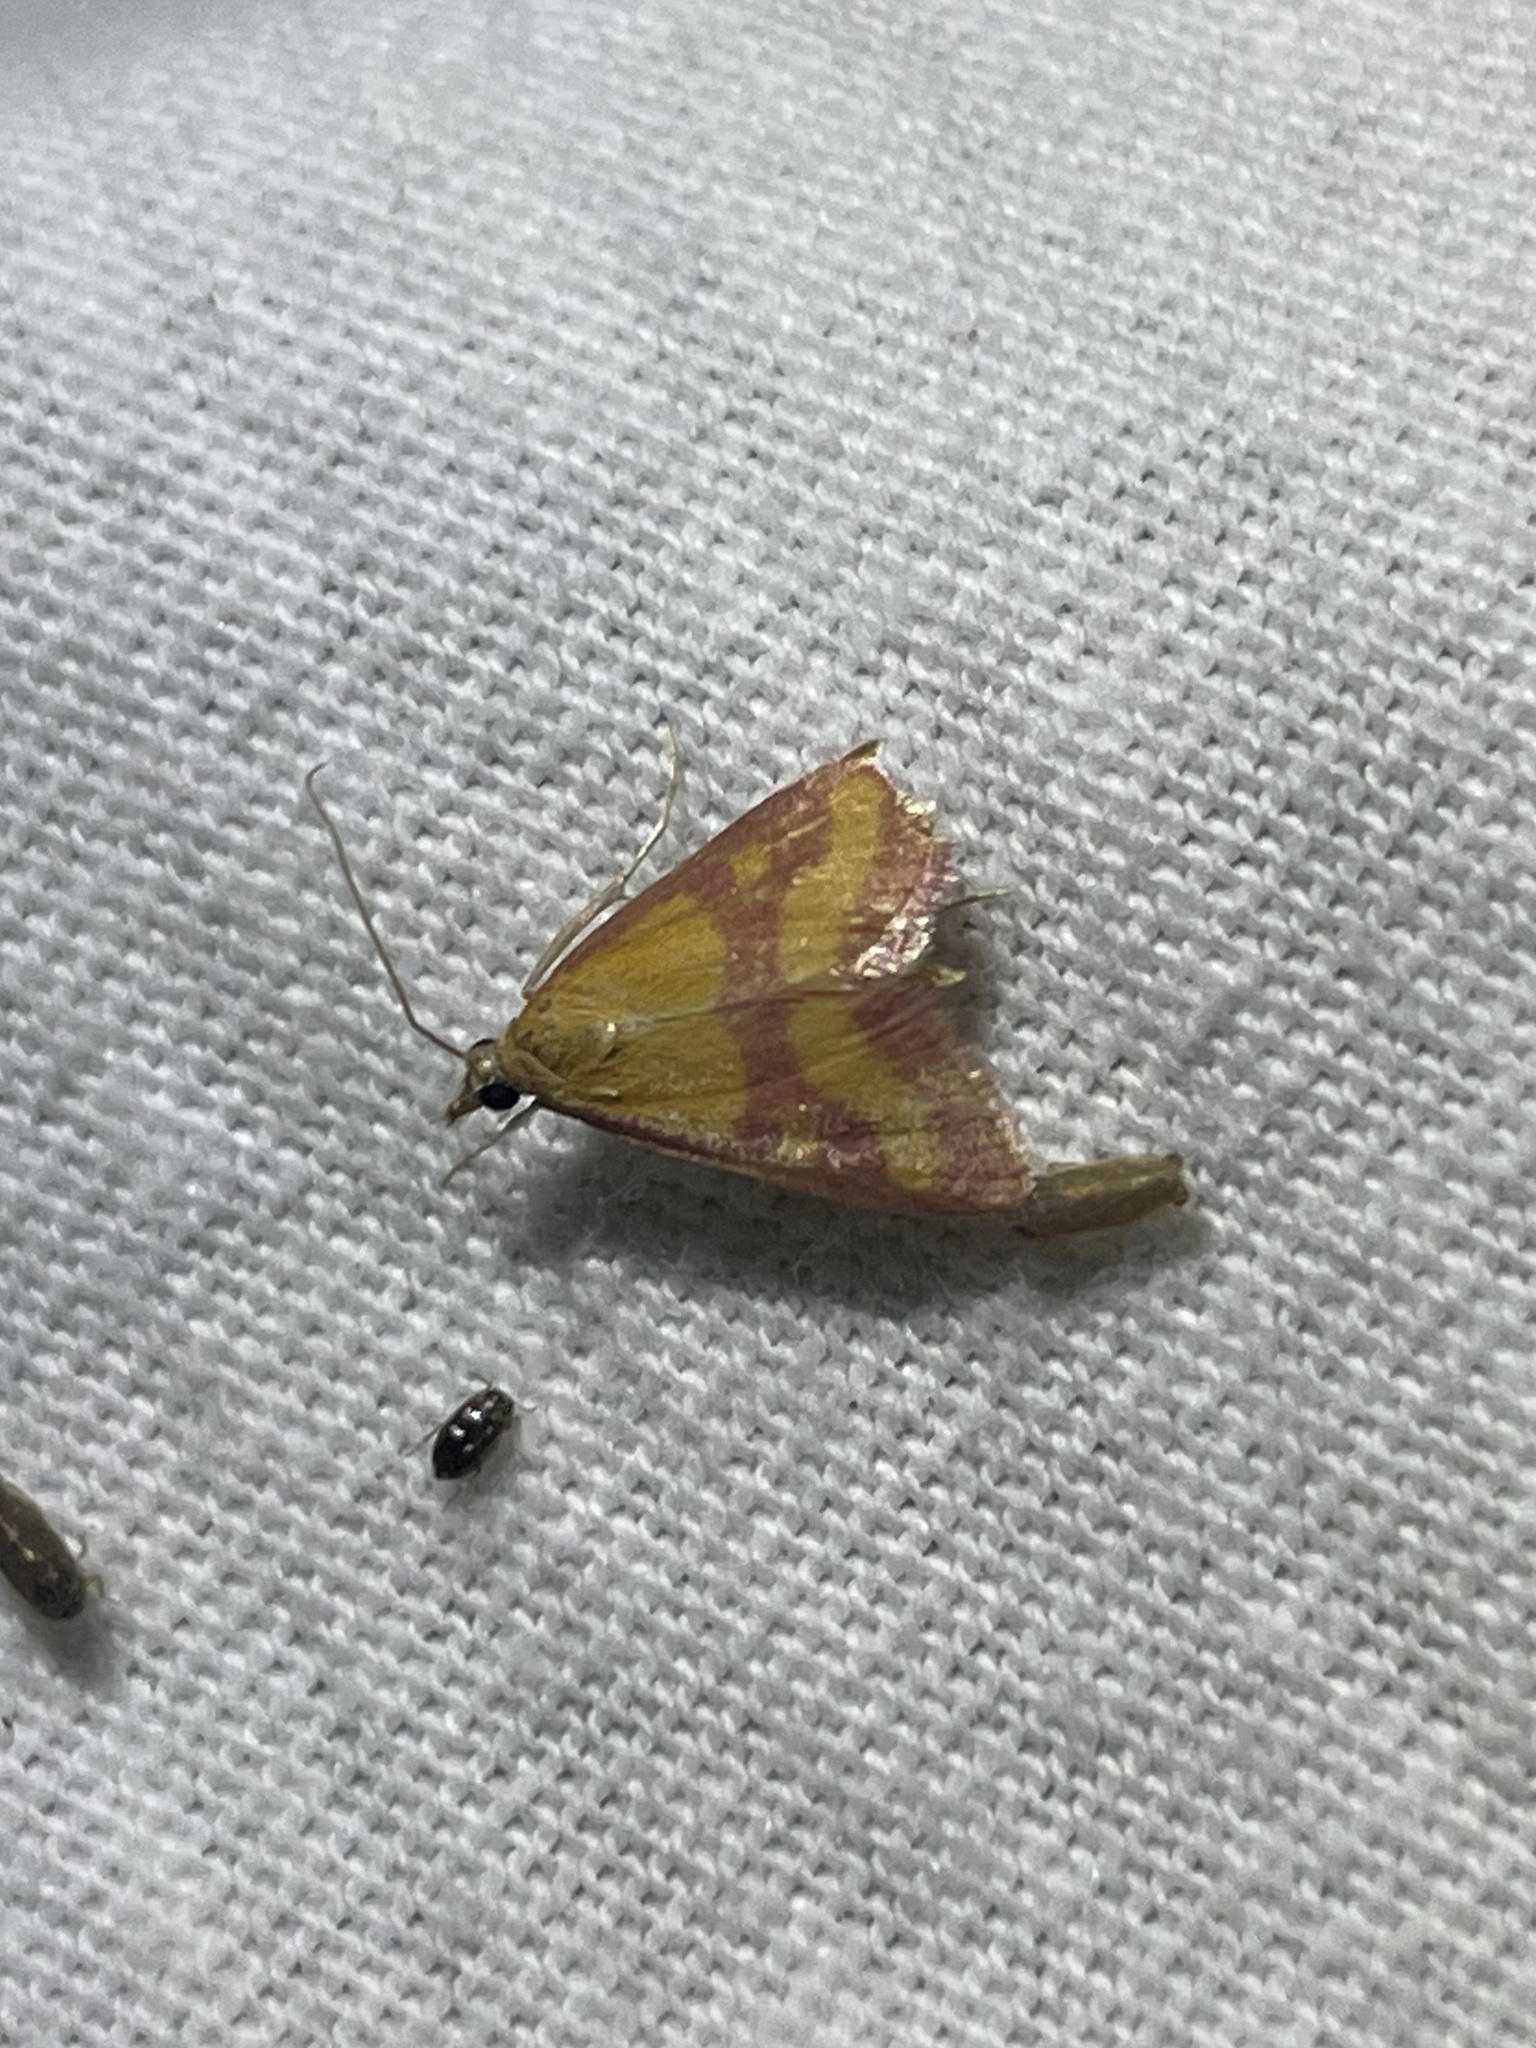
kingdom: Animalia
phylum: Arthropoda
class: Insecta
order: Lepidoptera
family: Crambidae
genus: Pyrausta
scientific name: Pyrausta laticlavia
